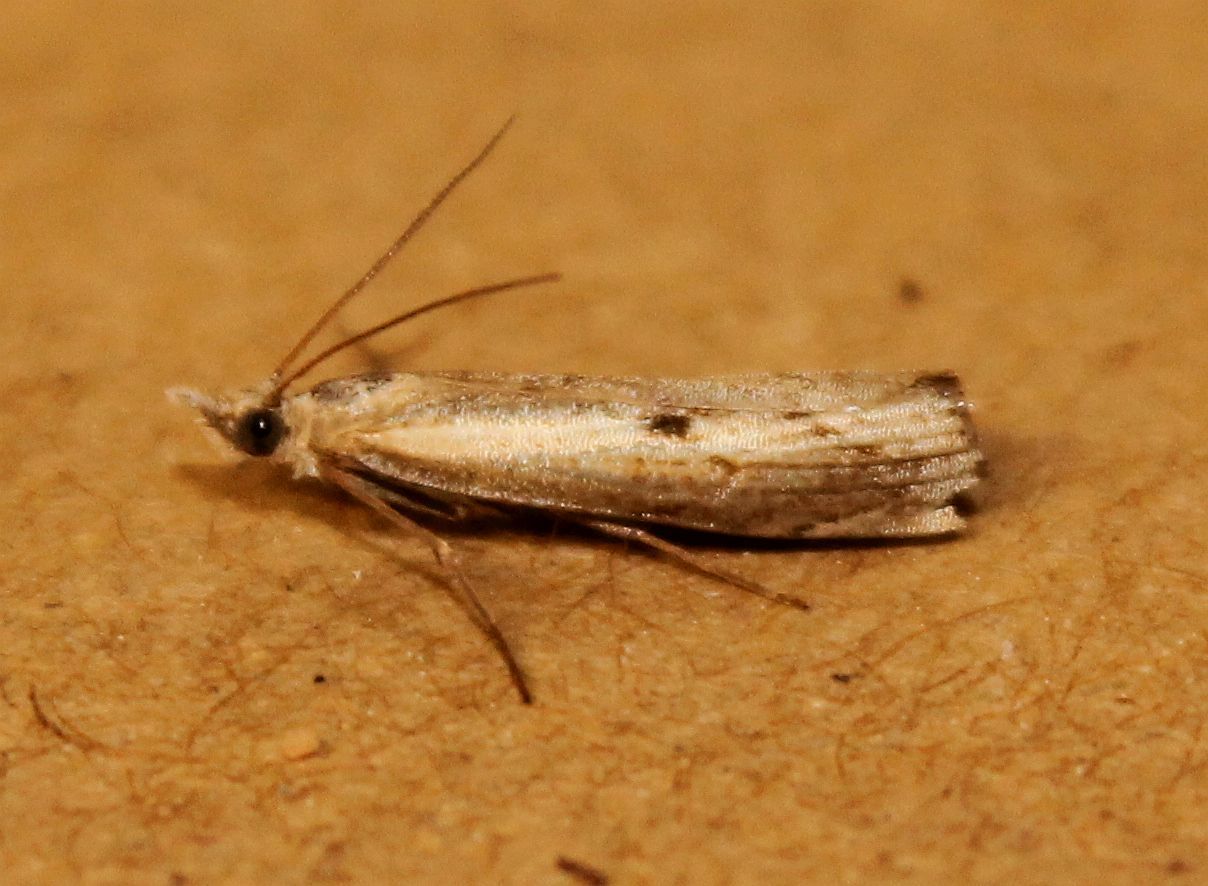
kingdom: Animalia
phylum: Arthropoda
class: Insecta
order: Lepidoptera
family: Crambidae
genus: Agriphila
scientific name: Agriphila inquinatella
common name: Barred grass-veneer
